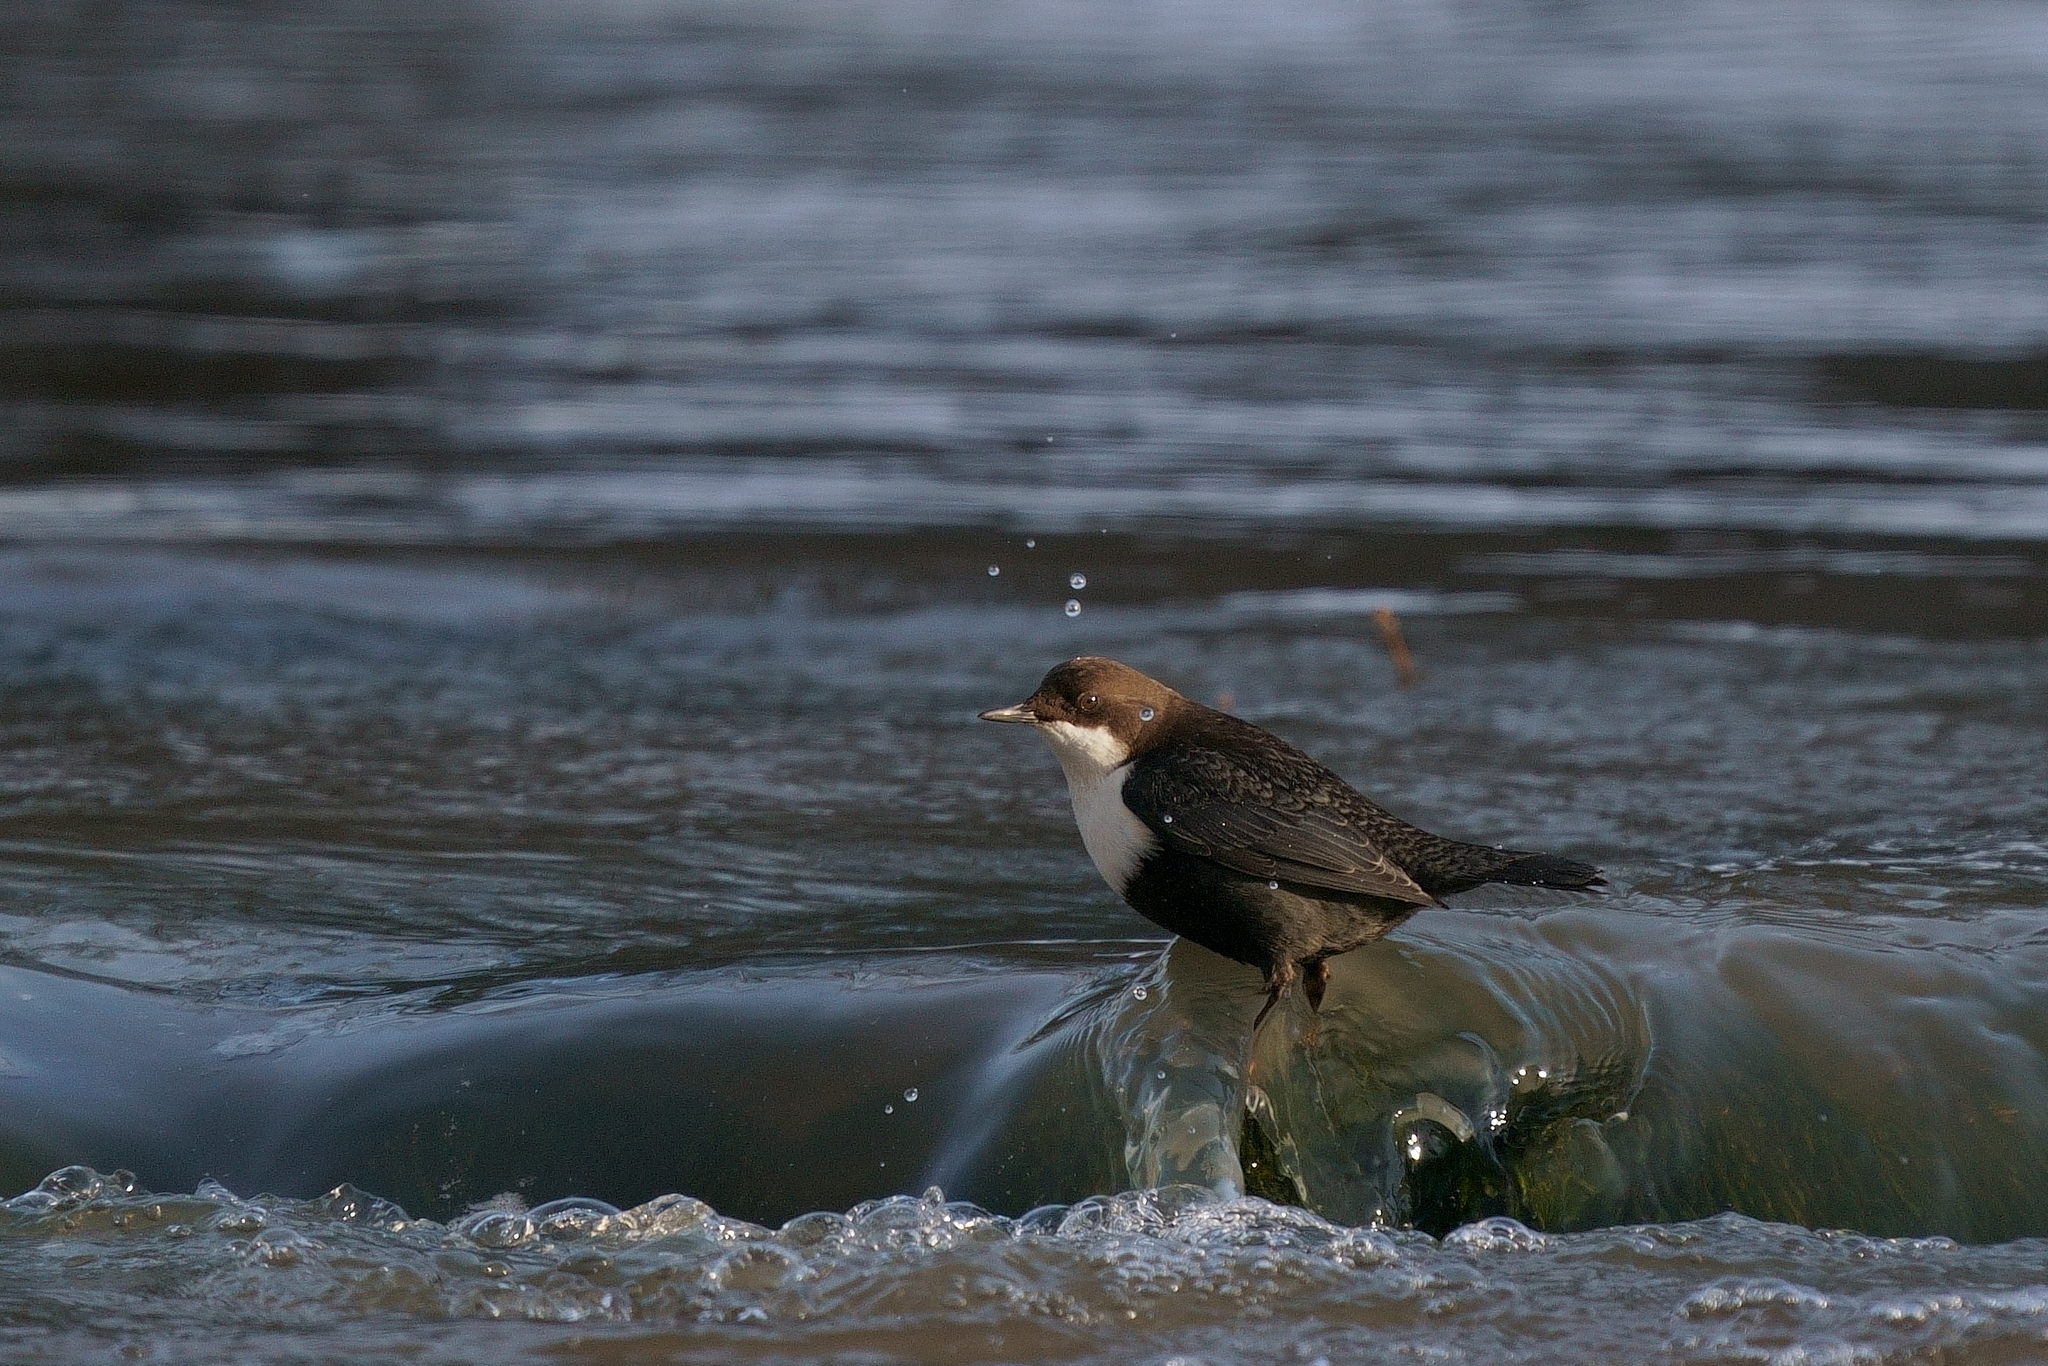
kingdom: Animalia
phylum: Chordata
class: Aves
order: Passeriformes
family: Cinclidae
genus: Cinclus
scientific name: Cinclus cinclus
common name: White-throated dipper
